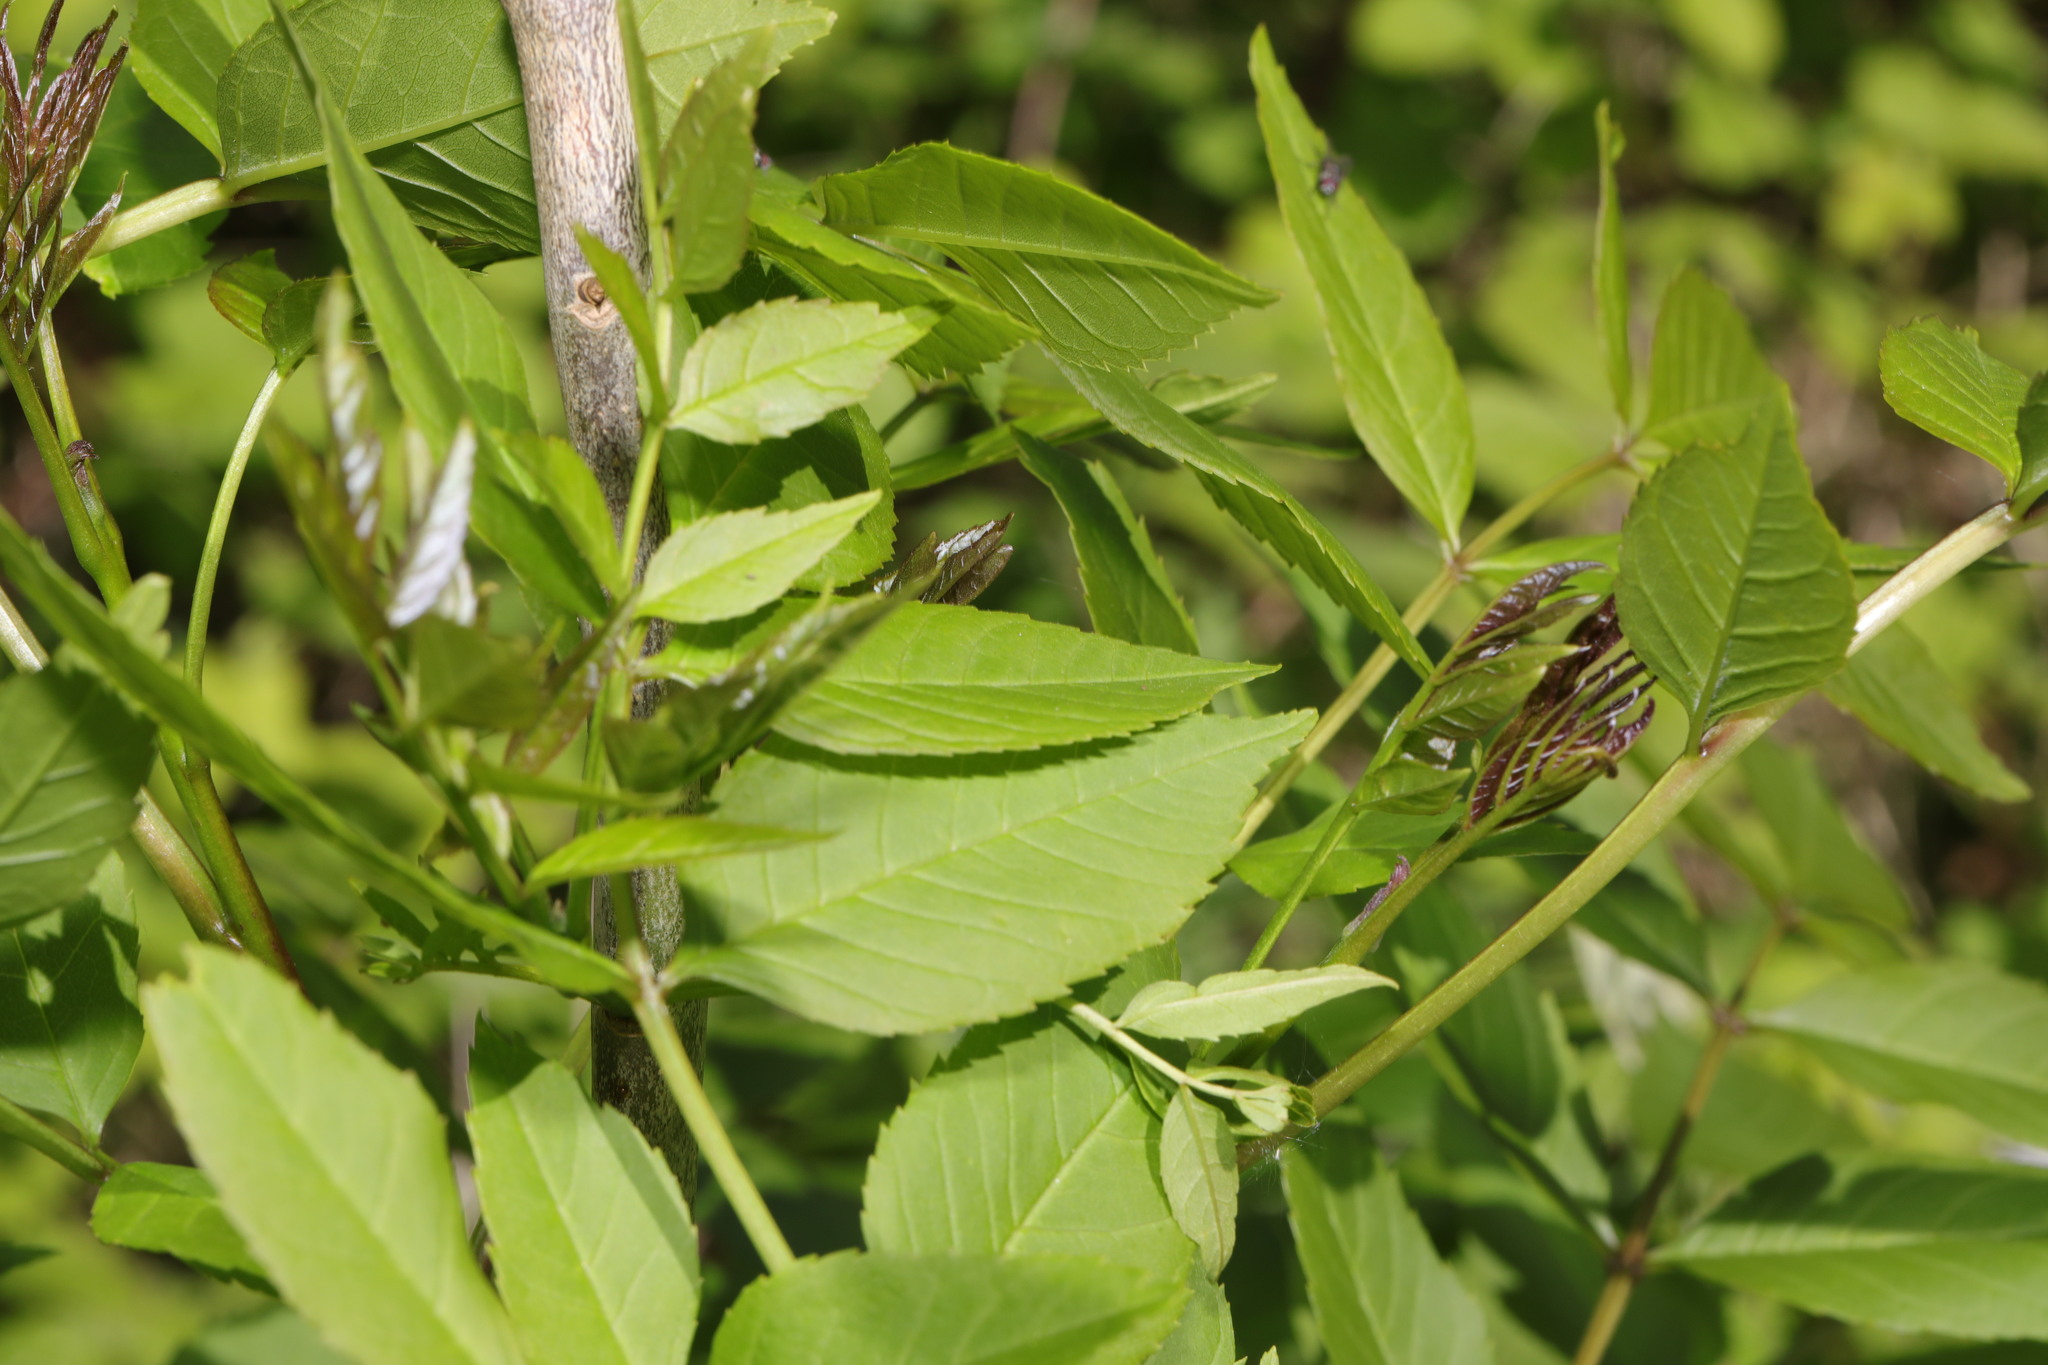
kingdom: Plantae
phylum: Tracheophyta
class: Magnoliopsida
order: Lamiales
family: Oleaceae
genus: Fraxinus
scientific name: Fraxinus excelsior
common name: European ash
